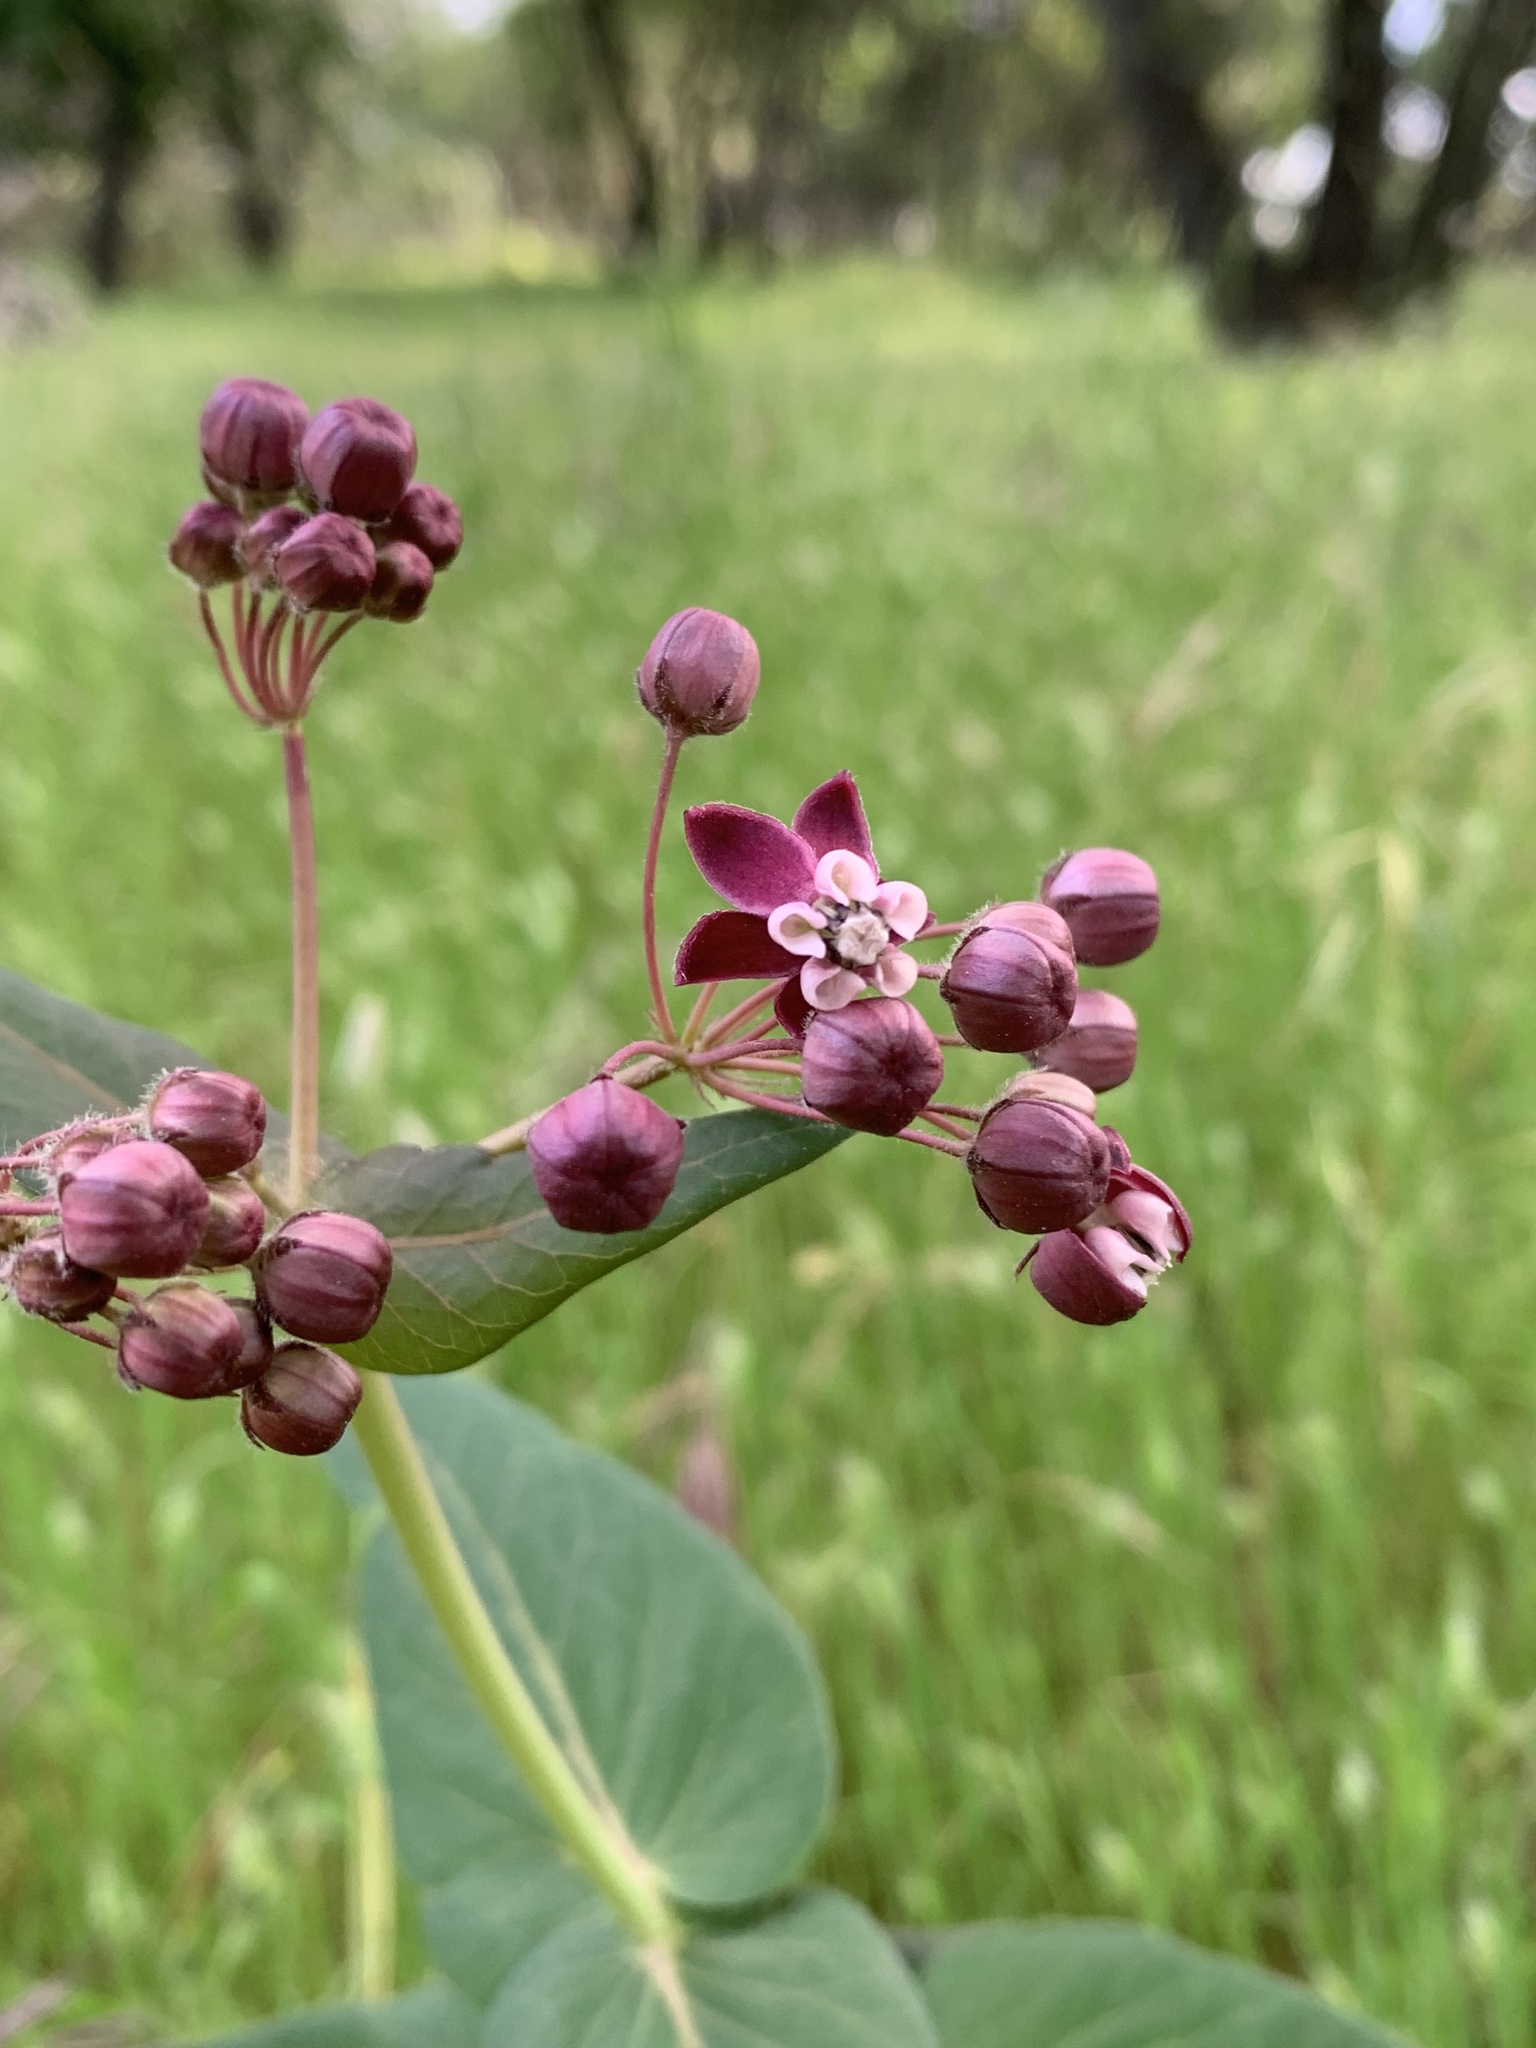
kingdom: Plantae
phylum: Tracheophyta
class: Magnoliopsida
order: Gentianales
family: Apocynaceae
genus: Asclepias
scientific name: Asclepias cordifolia
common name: Purple milkweed
